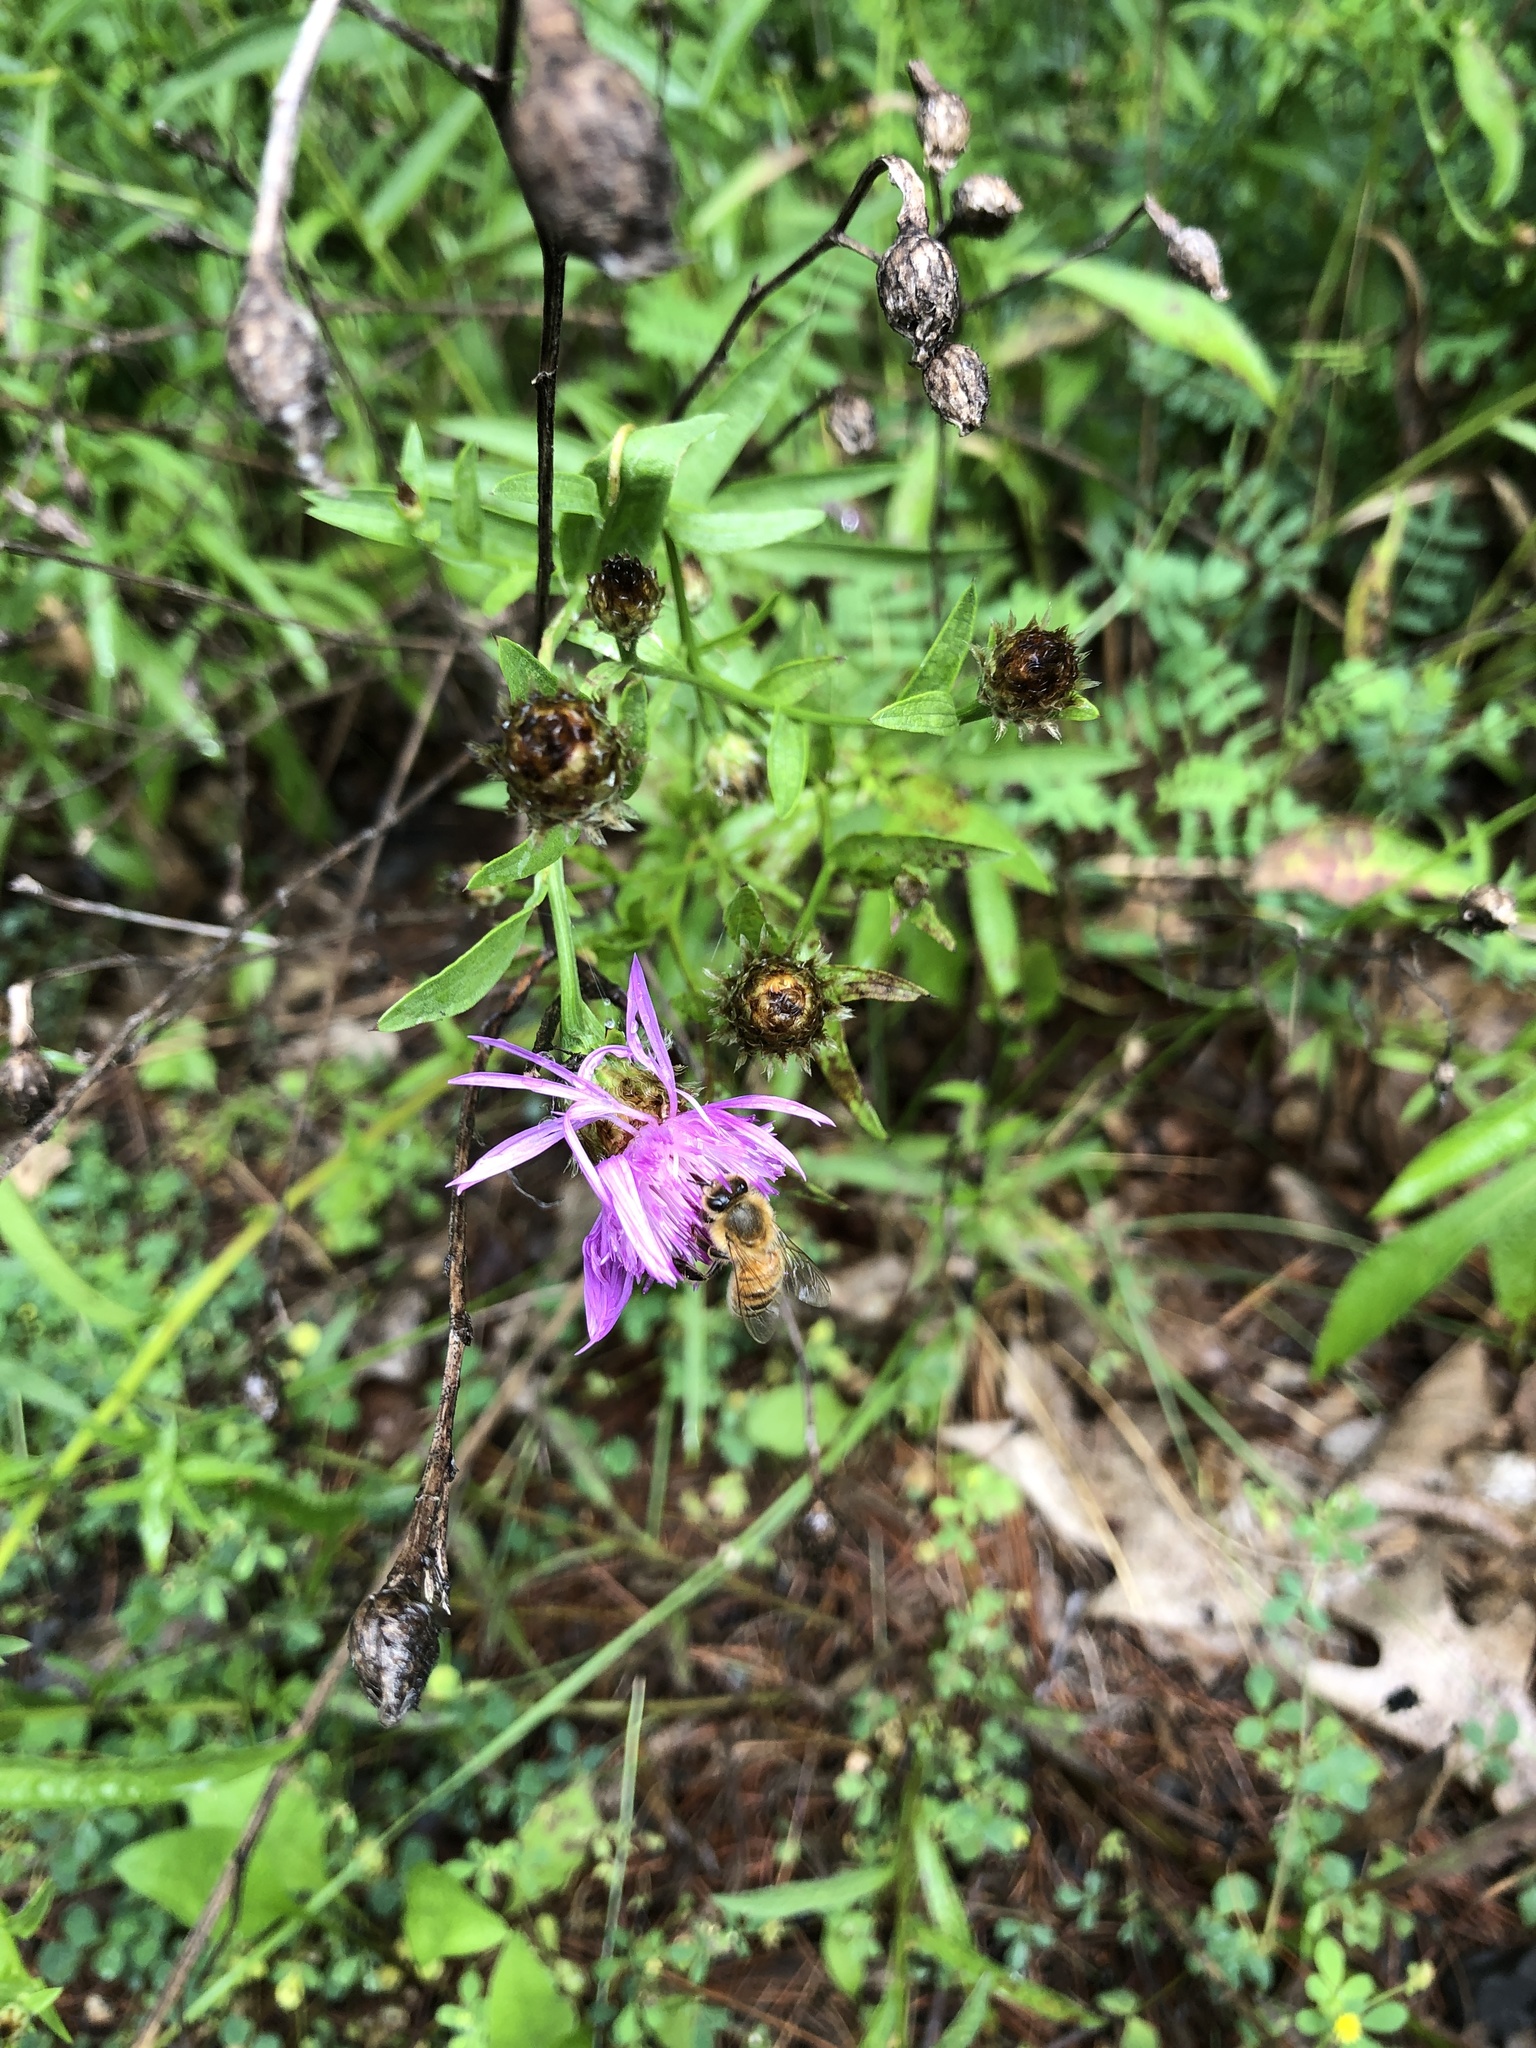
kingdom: Animalia
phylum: Arthropoda
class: Insecta
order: Hymenoptera
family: Apidae
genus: Apis
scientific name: Apis mellifera
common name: Honey bee
